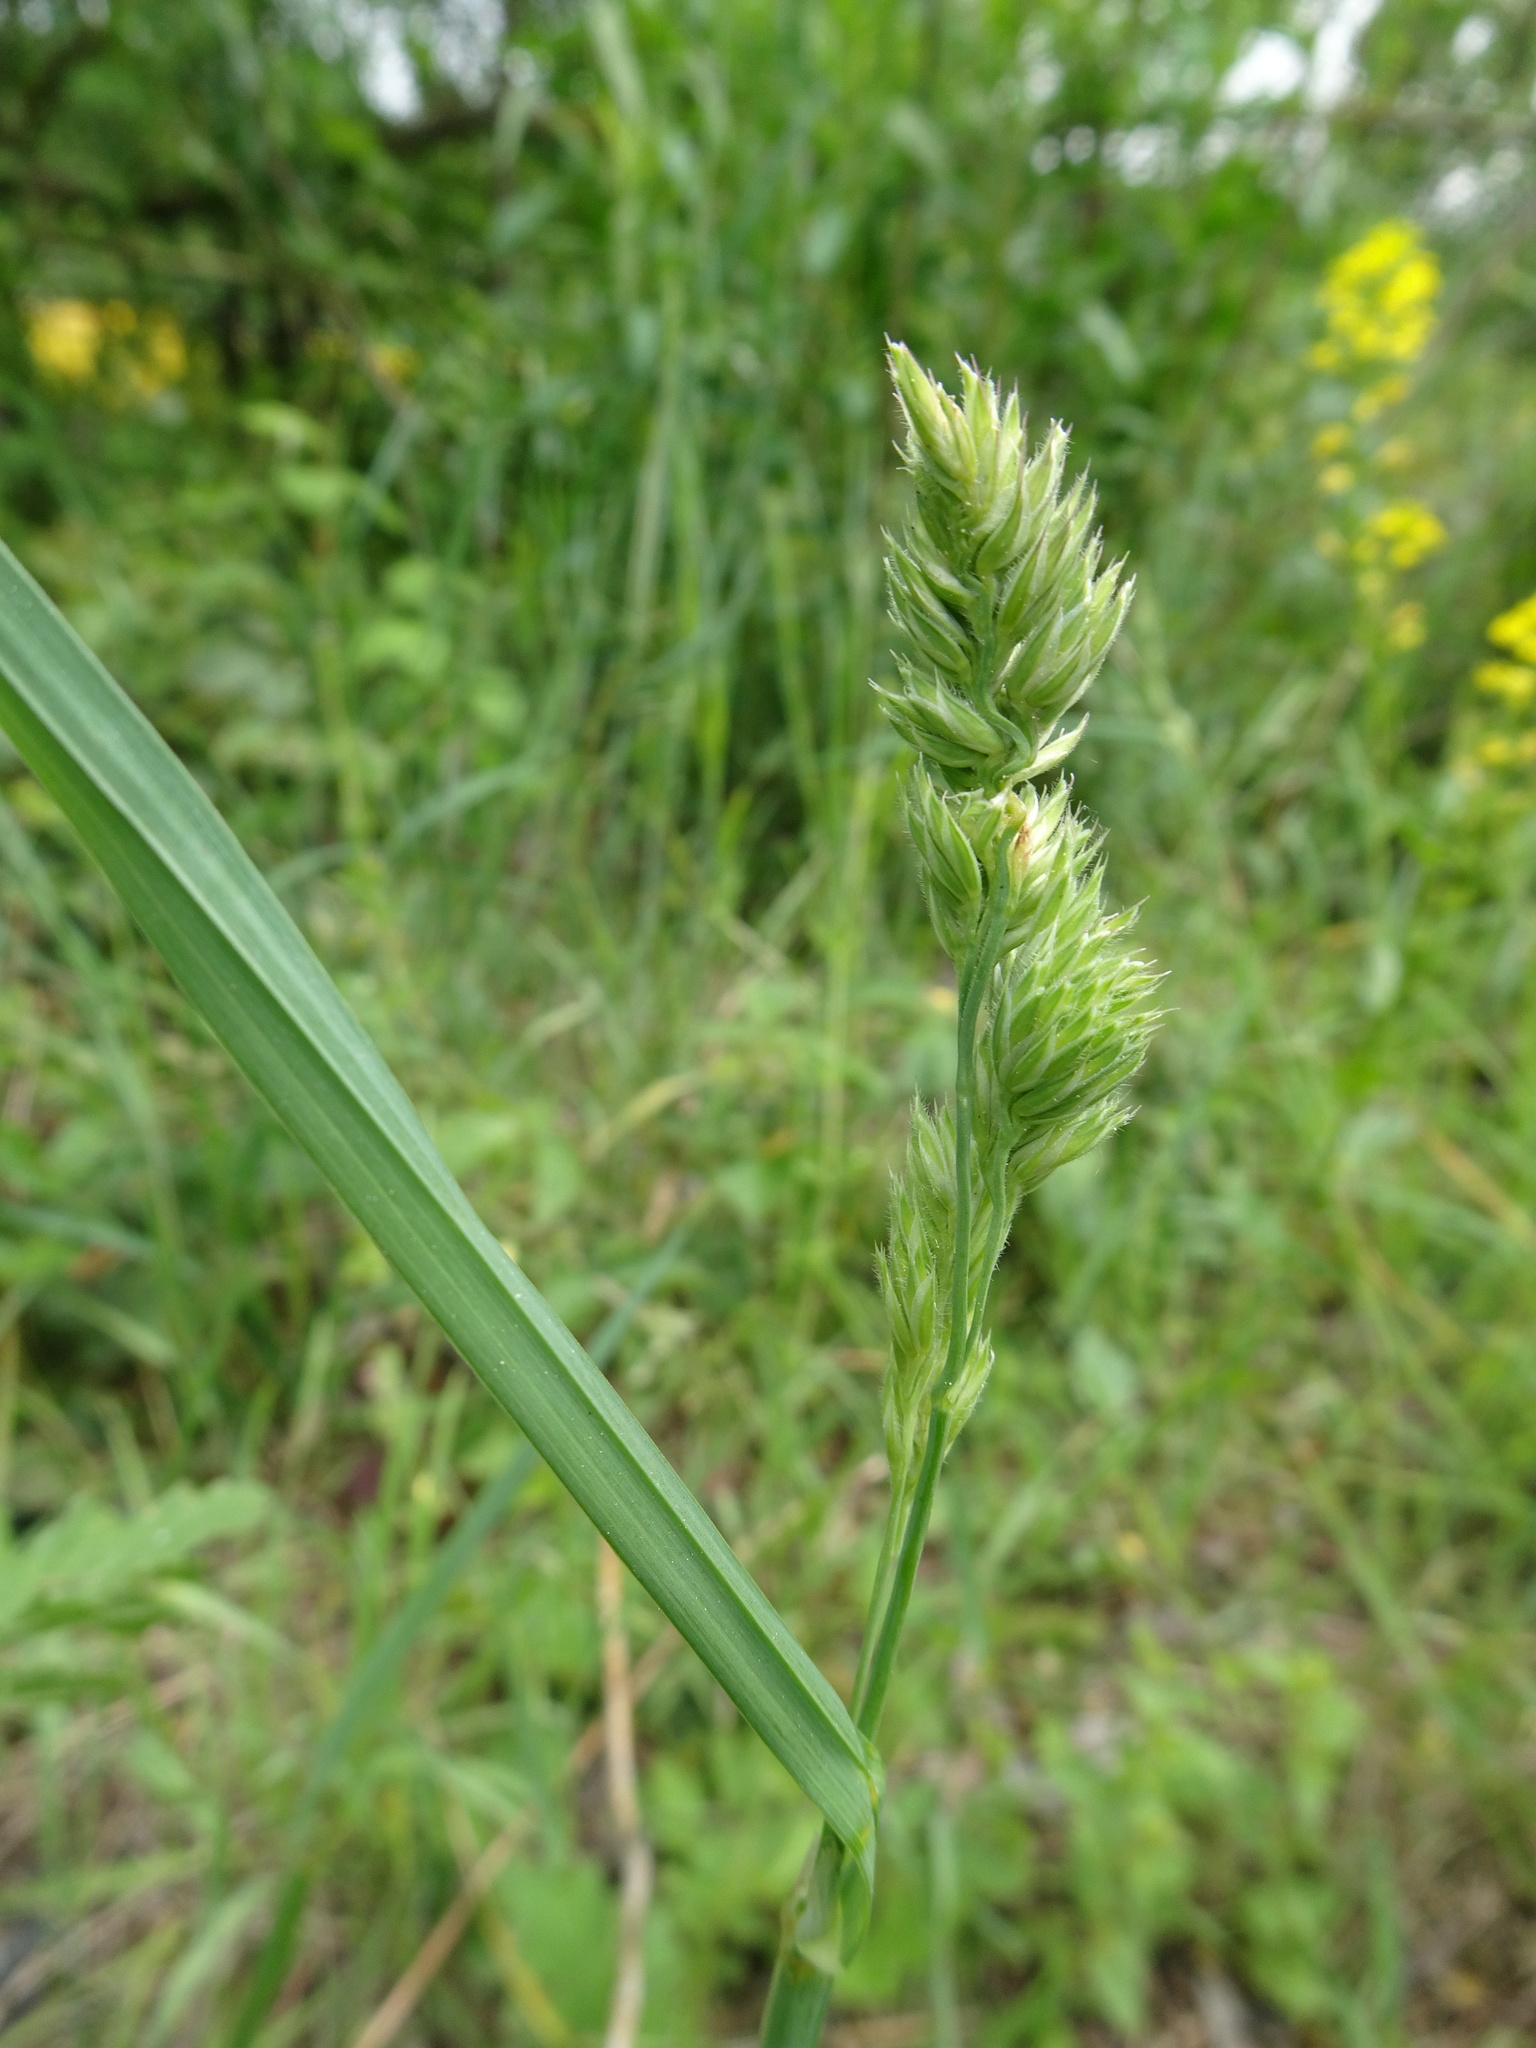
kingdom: Plantae
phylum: Tracheophyta
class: Liliopsida
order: Poales
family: Poaceae
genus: Dactylis
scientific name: Dactylis glomerata
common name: Orchardgrass
